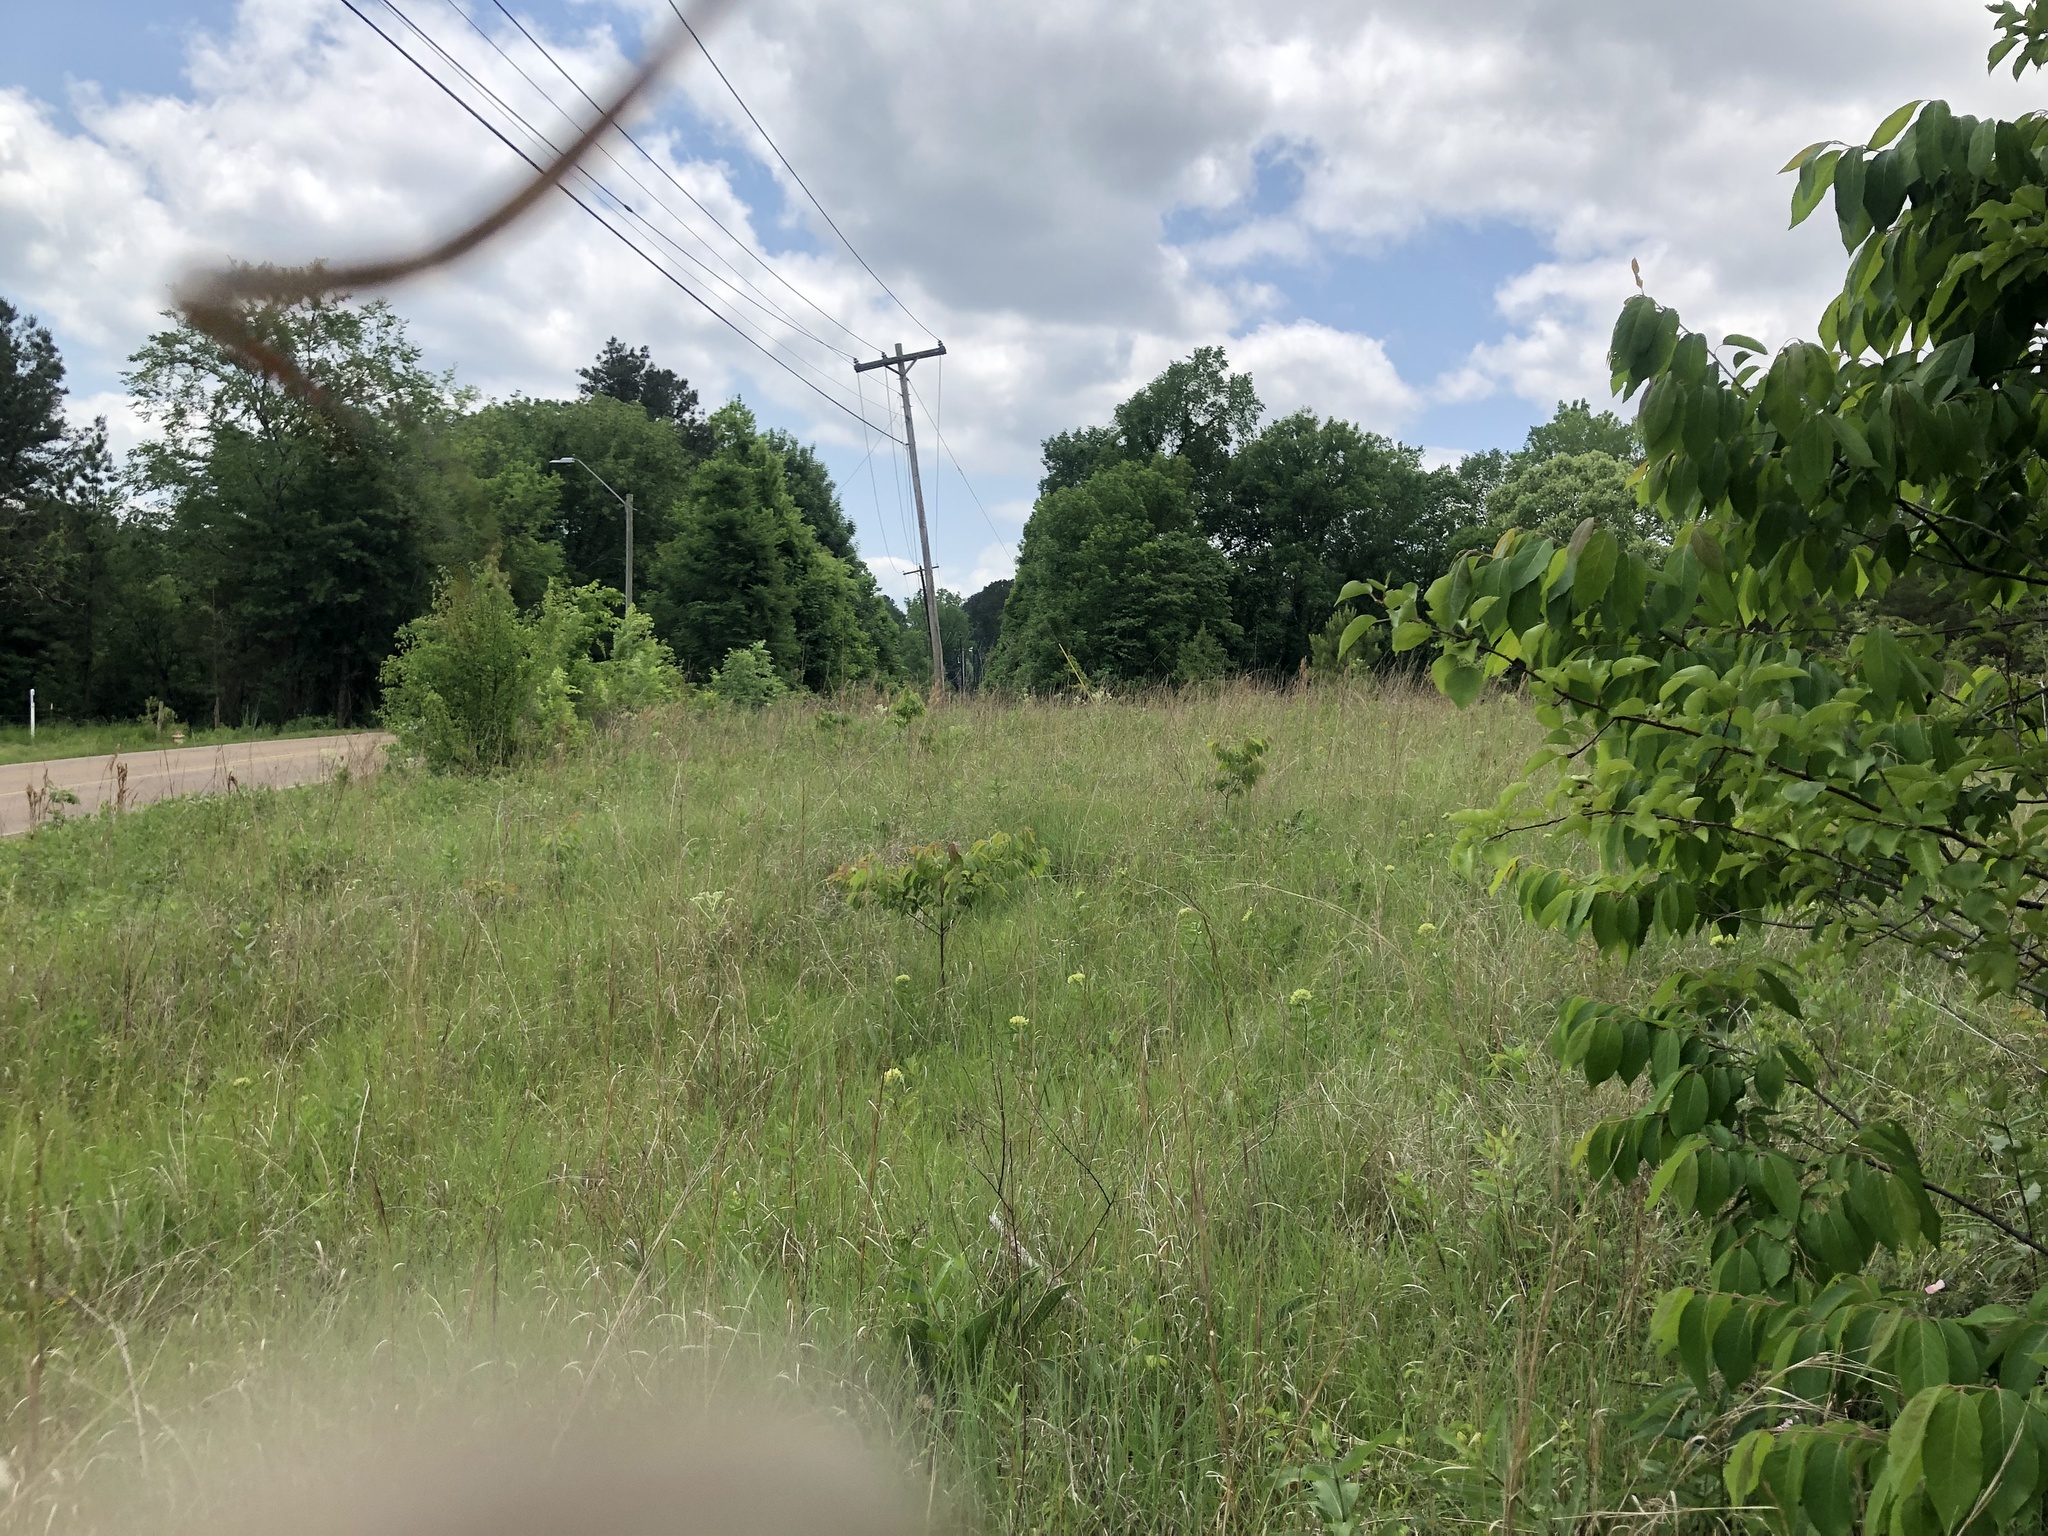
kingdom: Plantae
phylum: Tracheophyta
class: Magnoliopsida
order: Asterales
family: Asteraceae
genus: Arnoglossum
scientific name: Arnoglossum plantagineum
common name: Groove-stemmed indian-plantain
